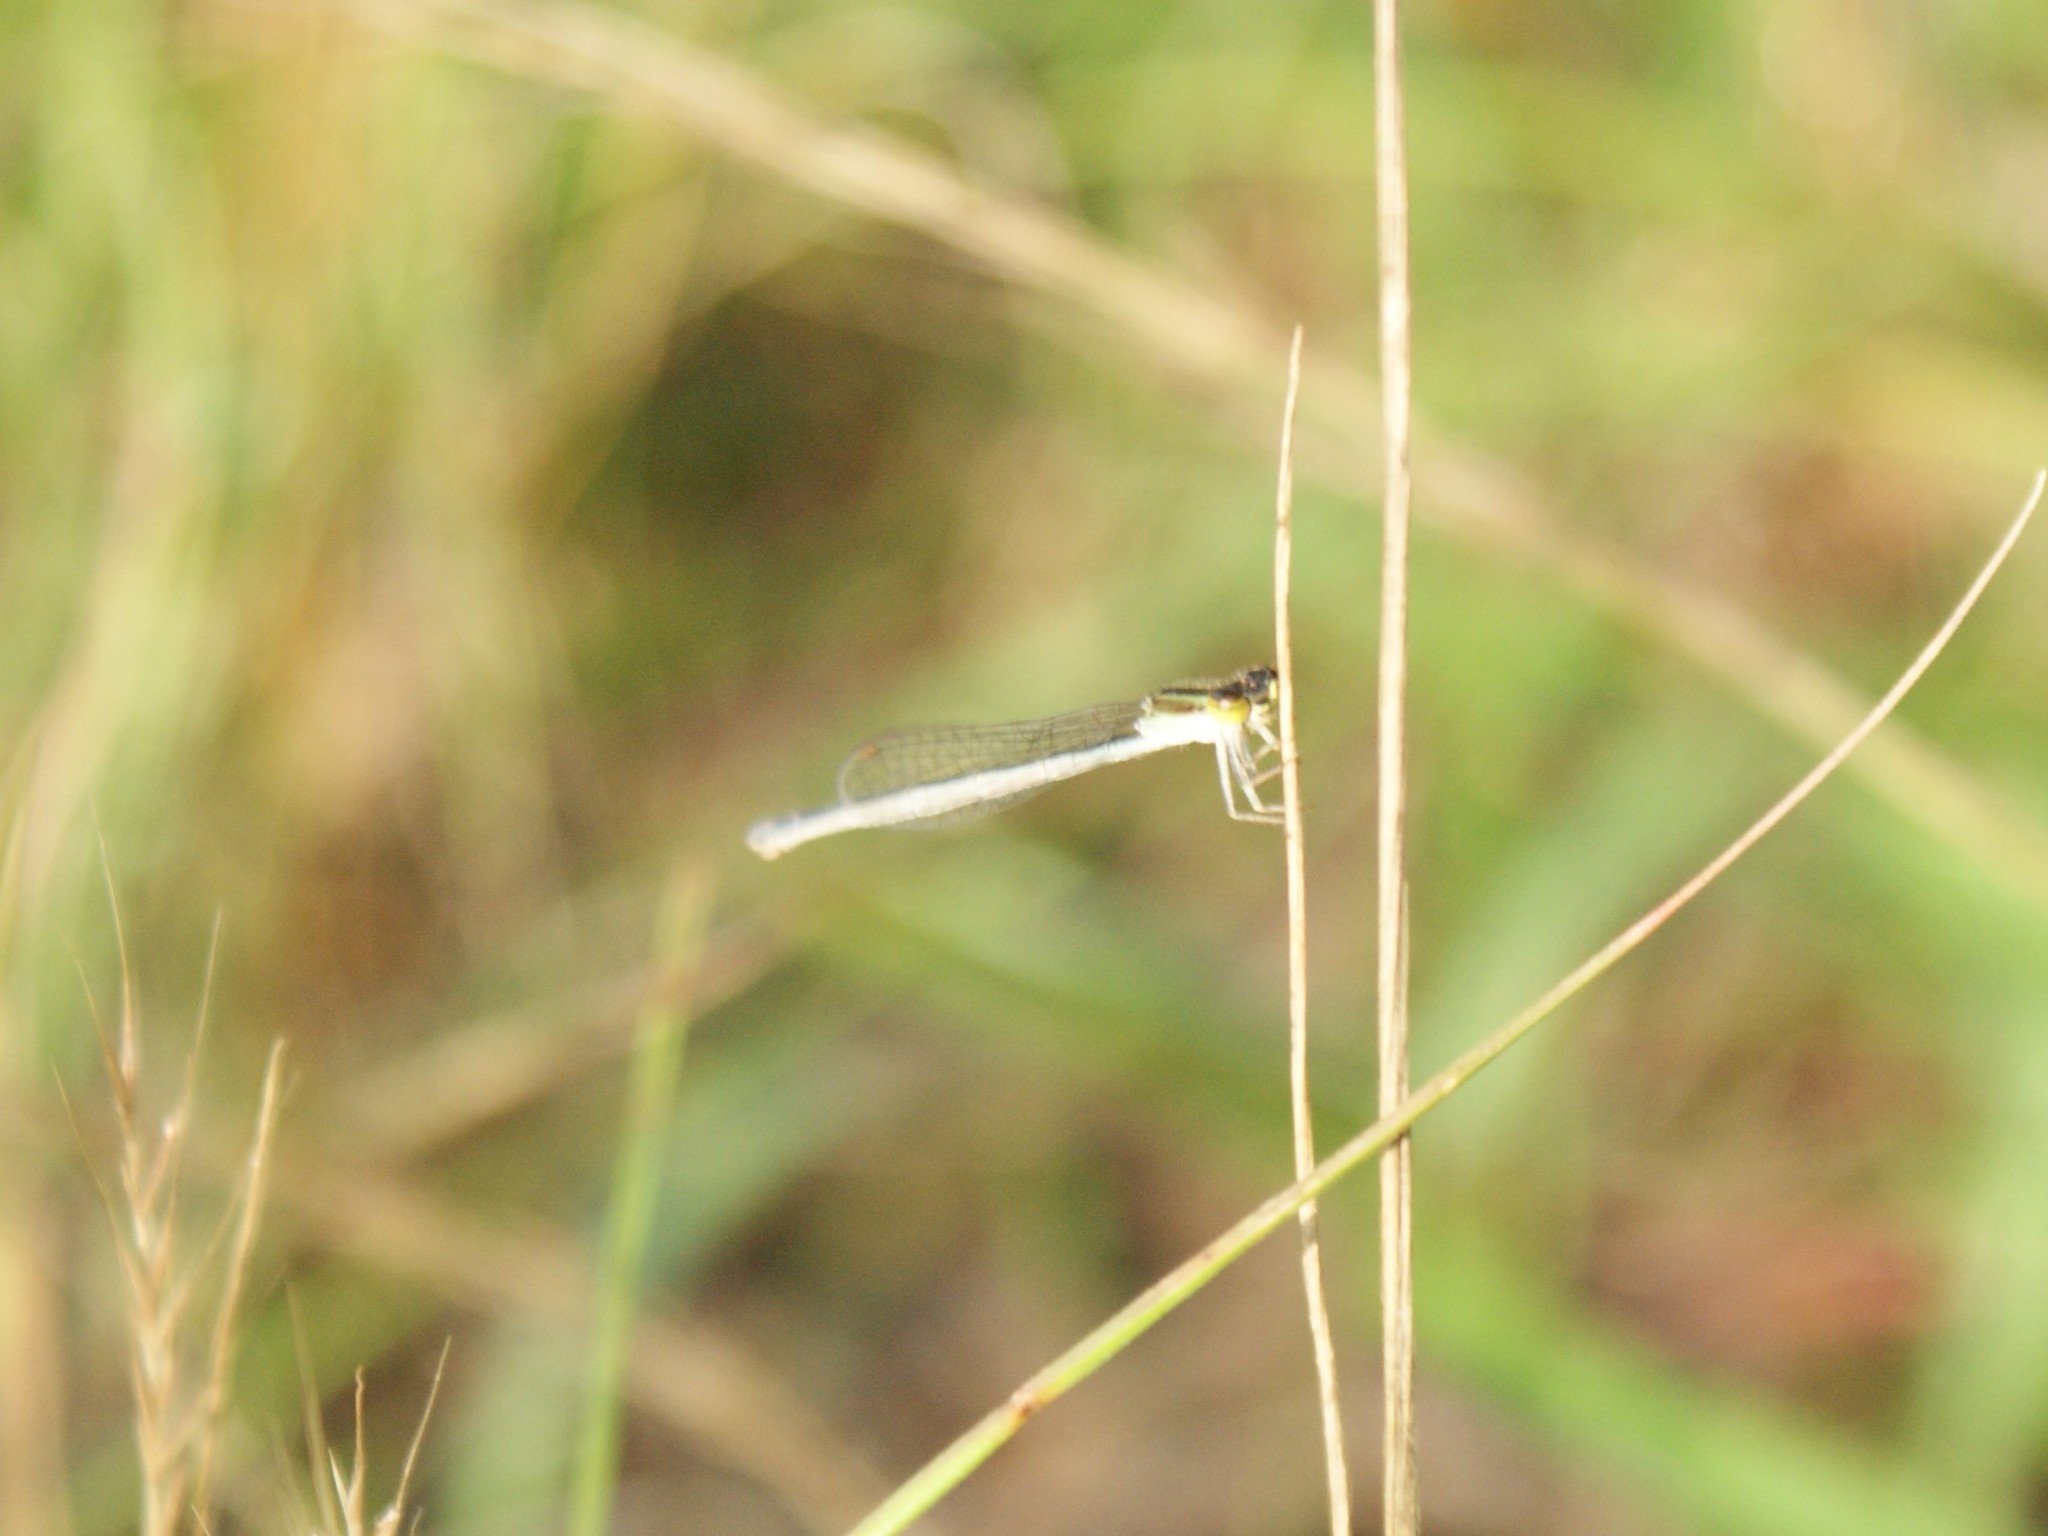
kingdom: Animalia
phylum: Arthropoda
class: Insecta
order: Odonata
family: Coenagrionidae
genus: Ischnura
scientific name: Ischnura hastata
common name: Citrine forktail
